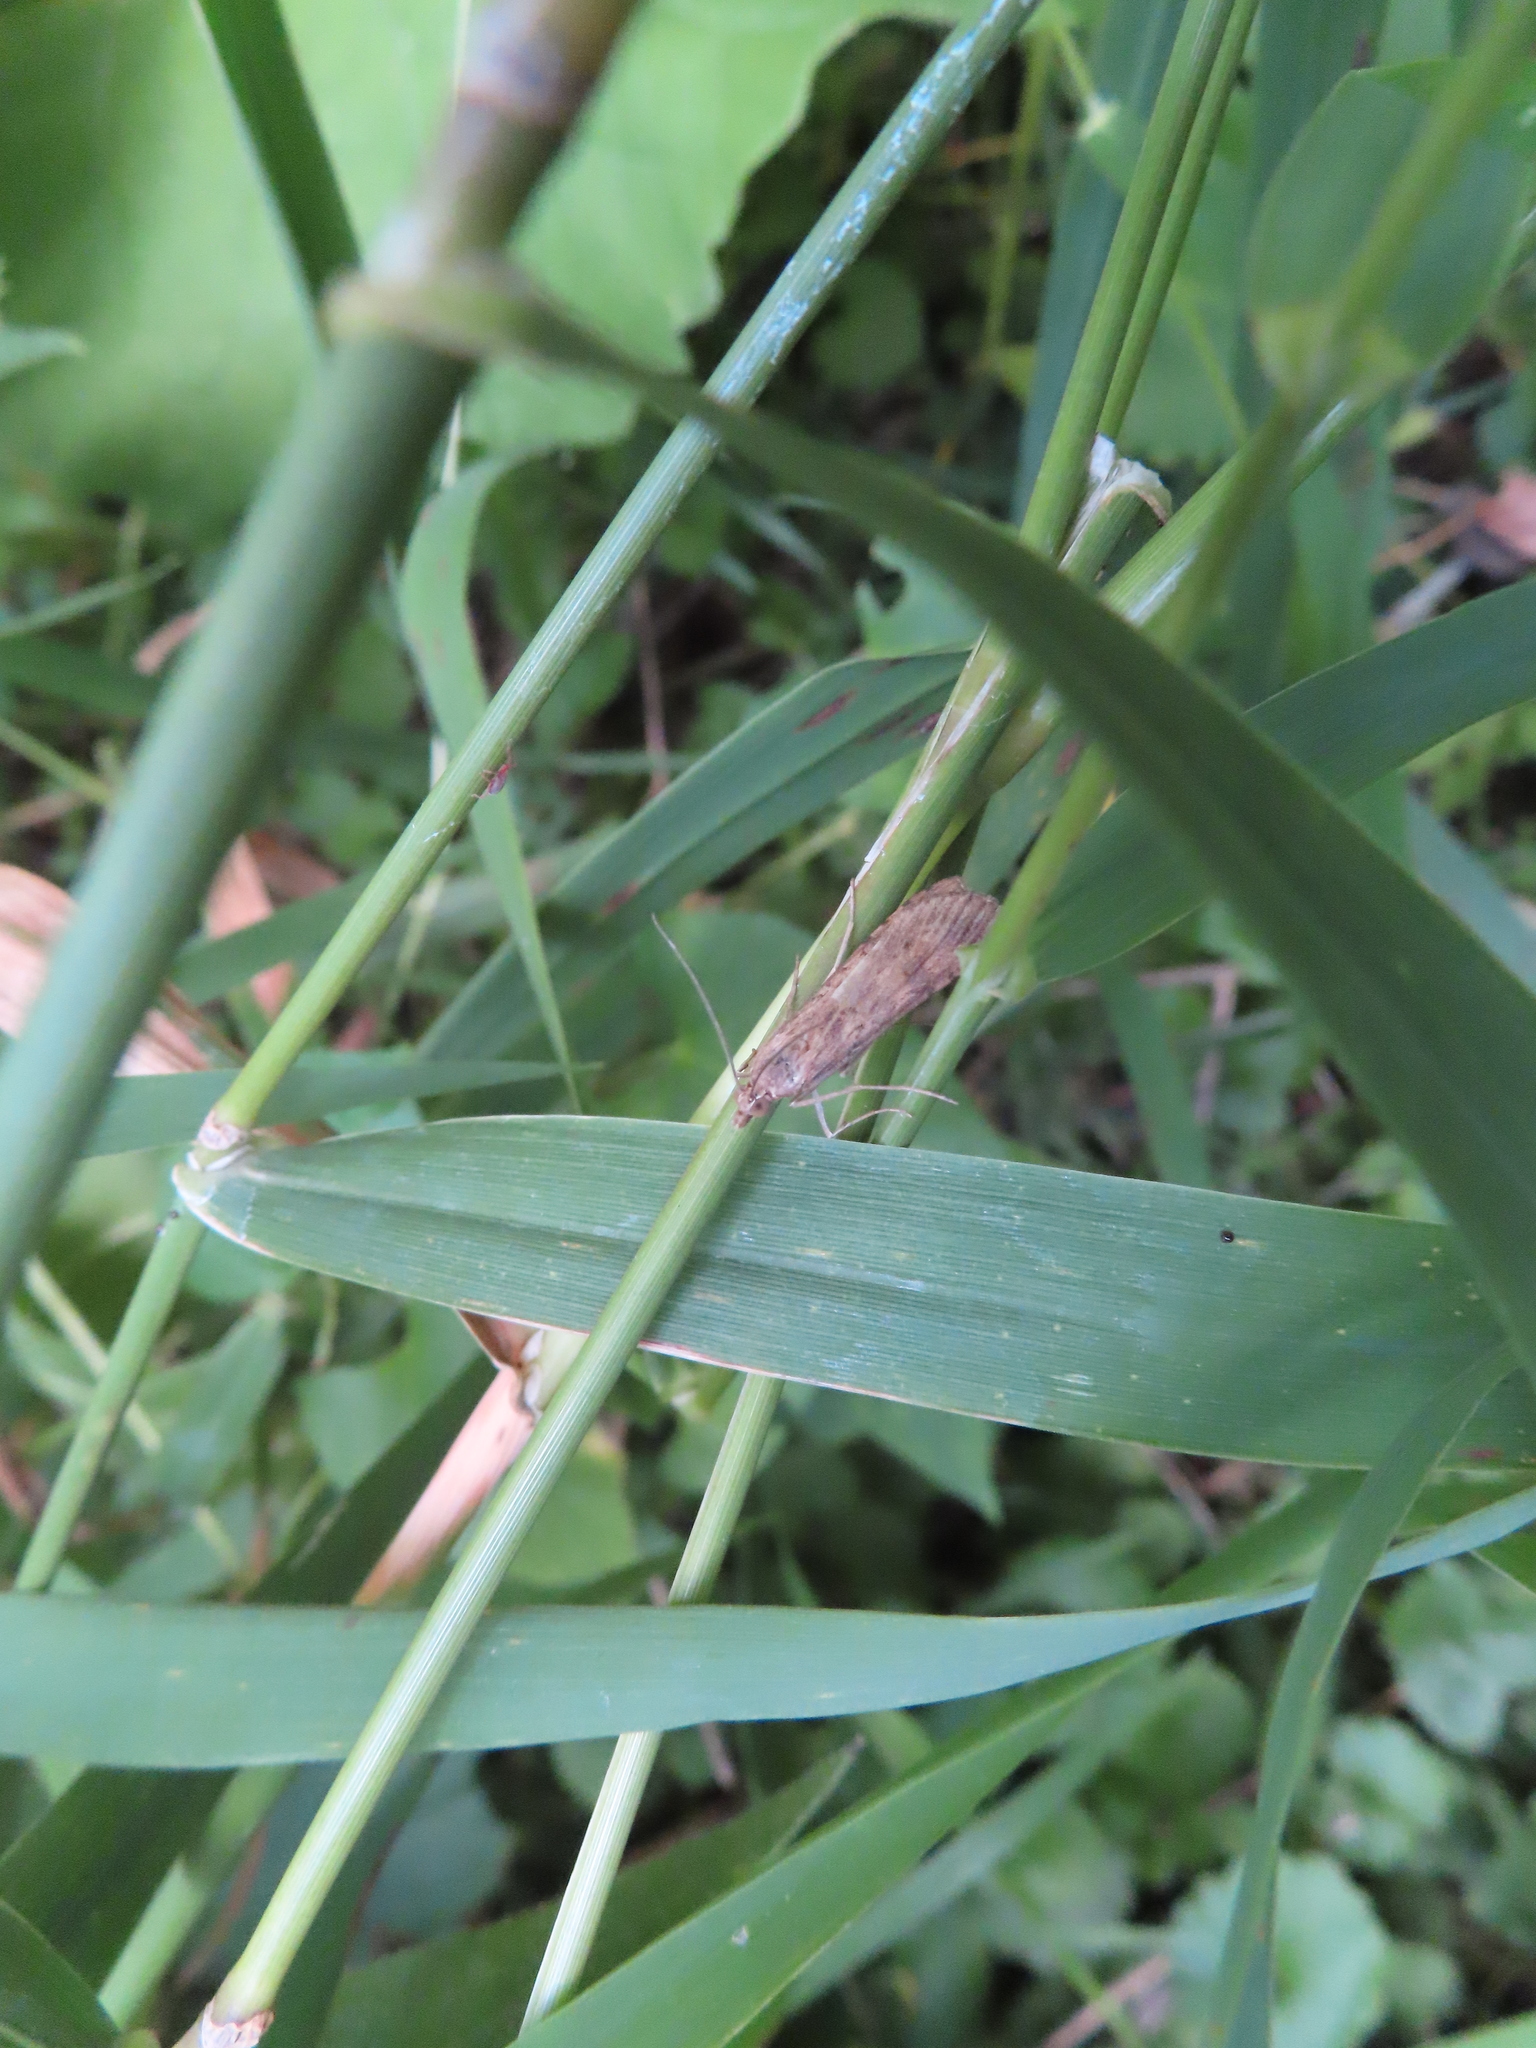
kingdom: Animalia
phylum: Arthropoda
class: Insecta
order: Lepidoptera
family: Crambidae
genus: Nomophila
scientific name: Nomophila nearctica
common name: American rush veneer
